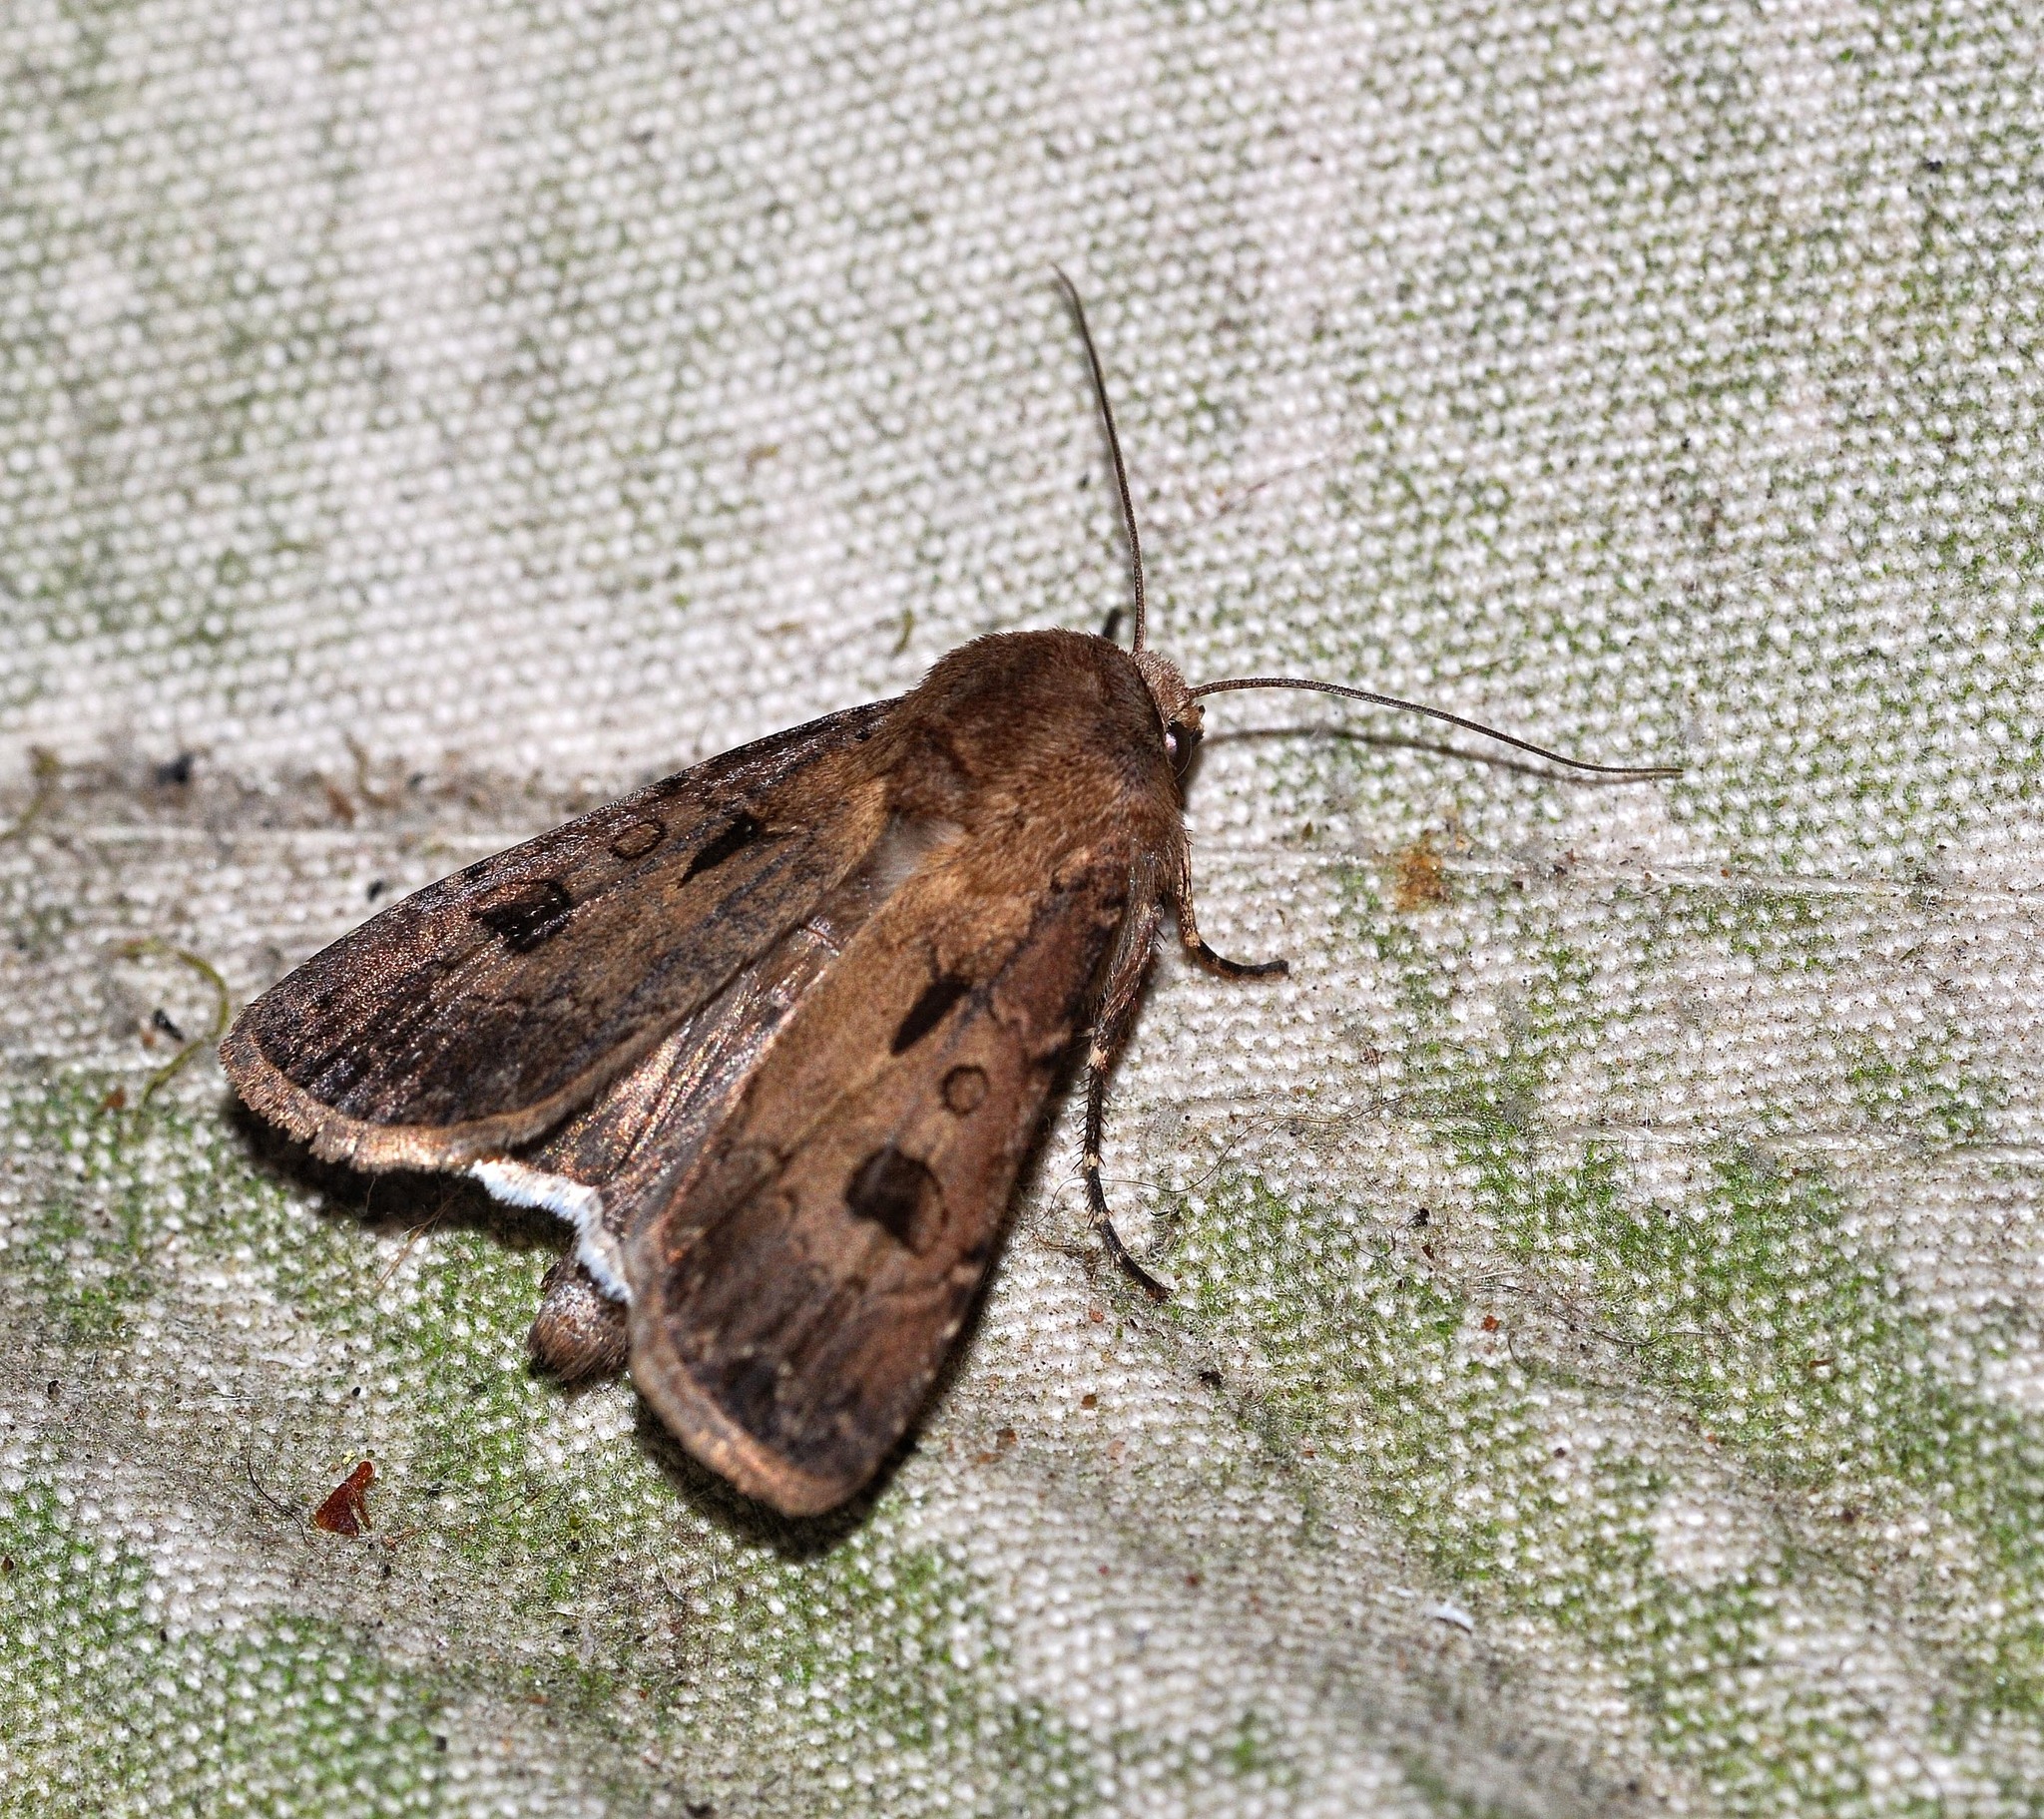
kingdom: Animalia
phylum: Arthropoda
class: Insecta
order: Lepidoptera
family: Noctuidae
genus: Agrotis
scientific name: Agrotis exclamationis
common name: Heart and dart
